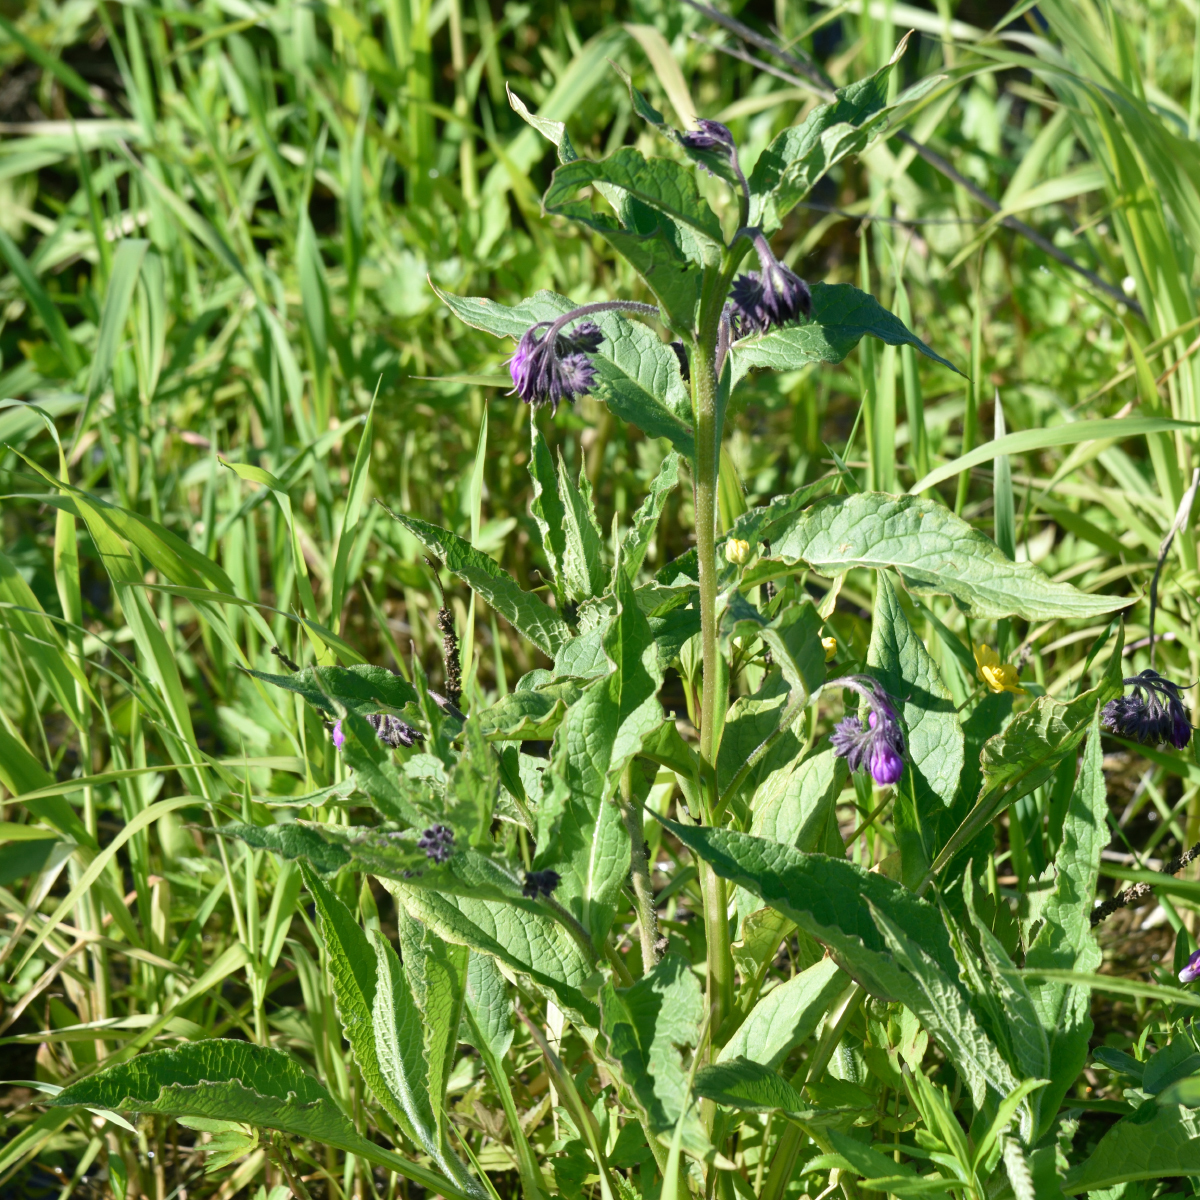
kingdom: Plantae
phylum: Tracheophyta
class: Magnoliopsida
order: Boraginales
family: Boraginaceae
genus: Symphytum
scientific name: Symphytum officinale
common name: Common comfrey
